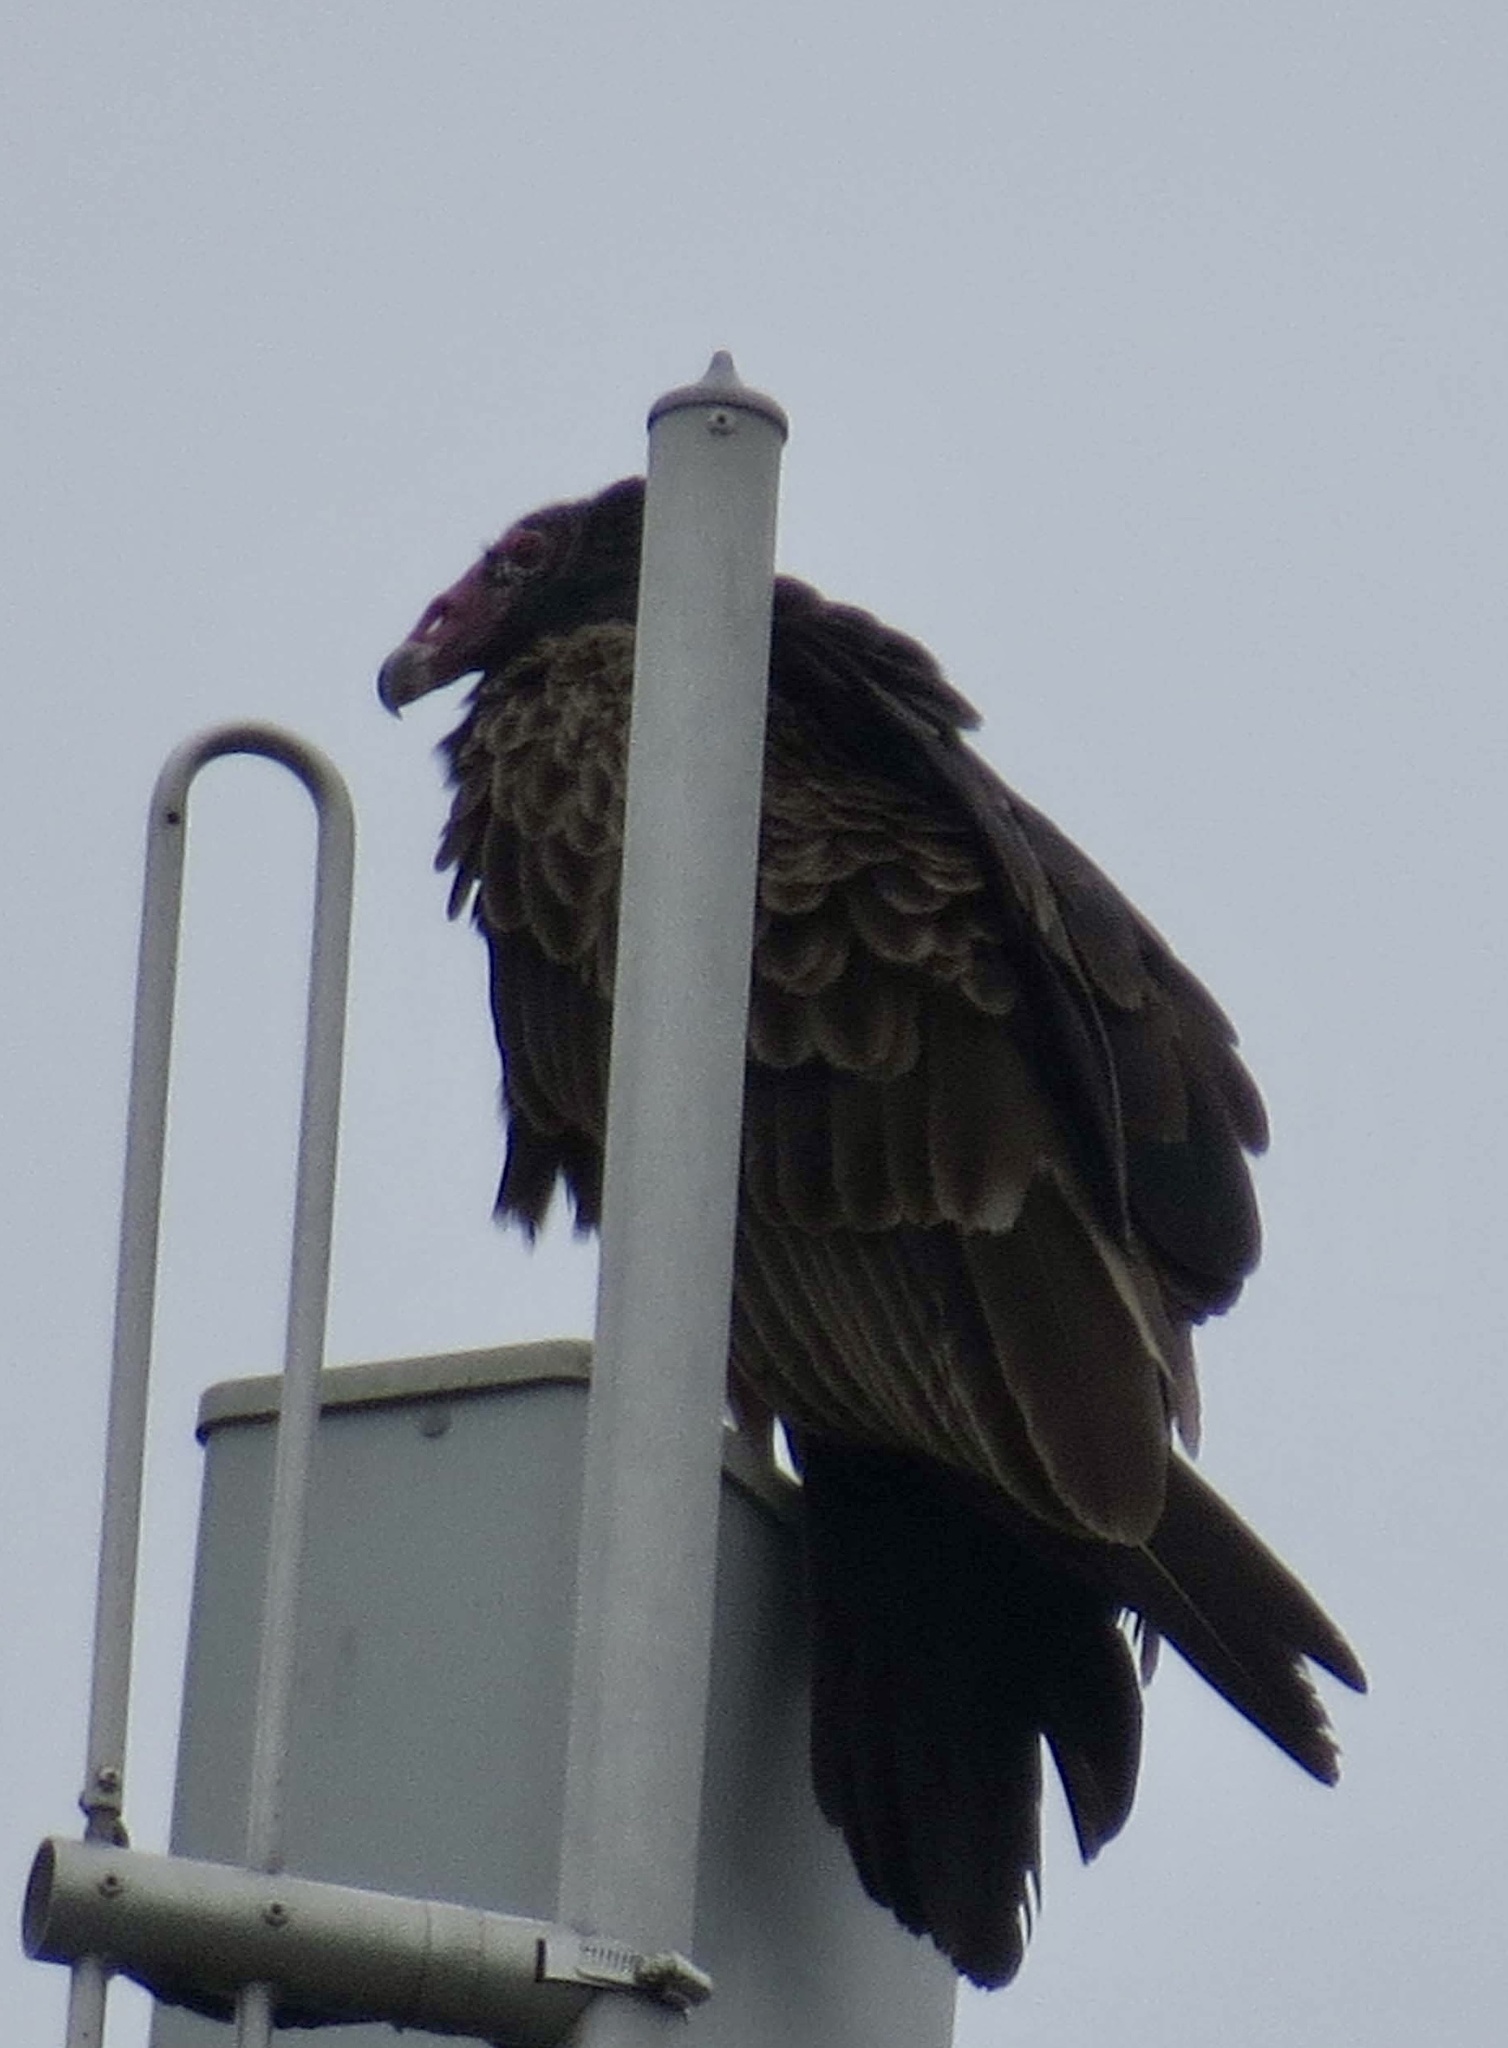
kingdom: Animalia
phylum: Chordata
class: Aves
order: Accipitriformes
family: Cathartidae
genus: Cathartes
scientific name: Cathartes aura
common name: Turkey vulture
